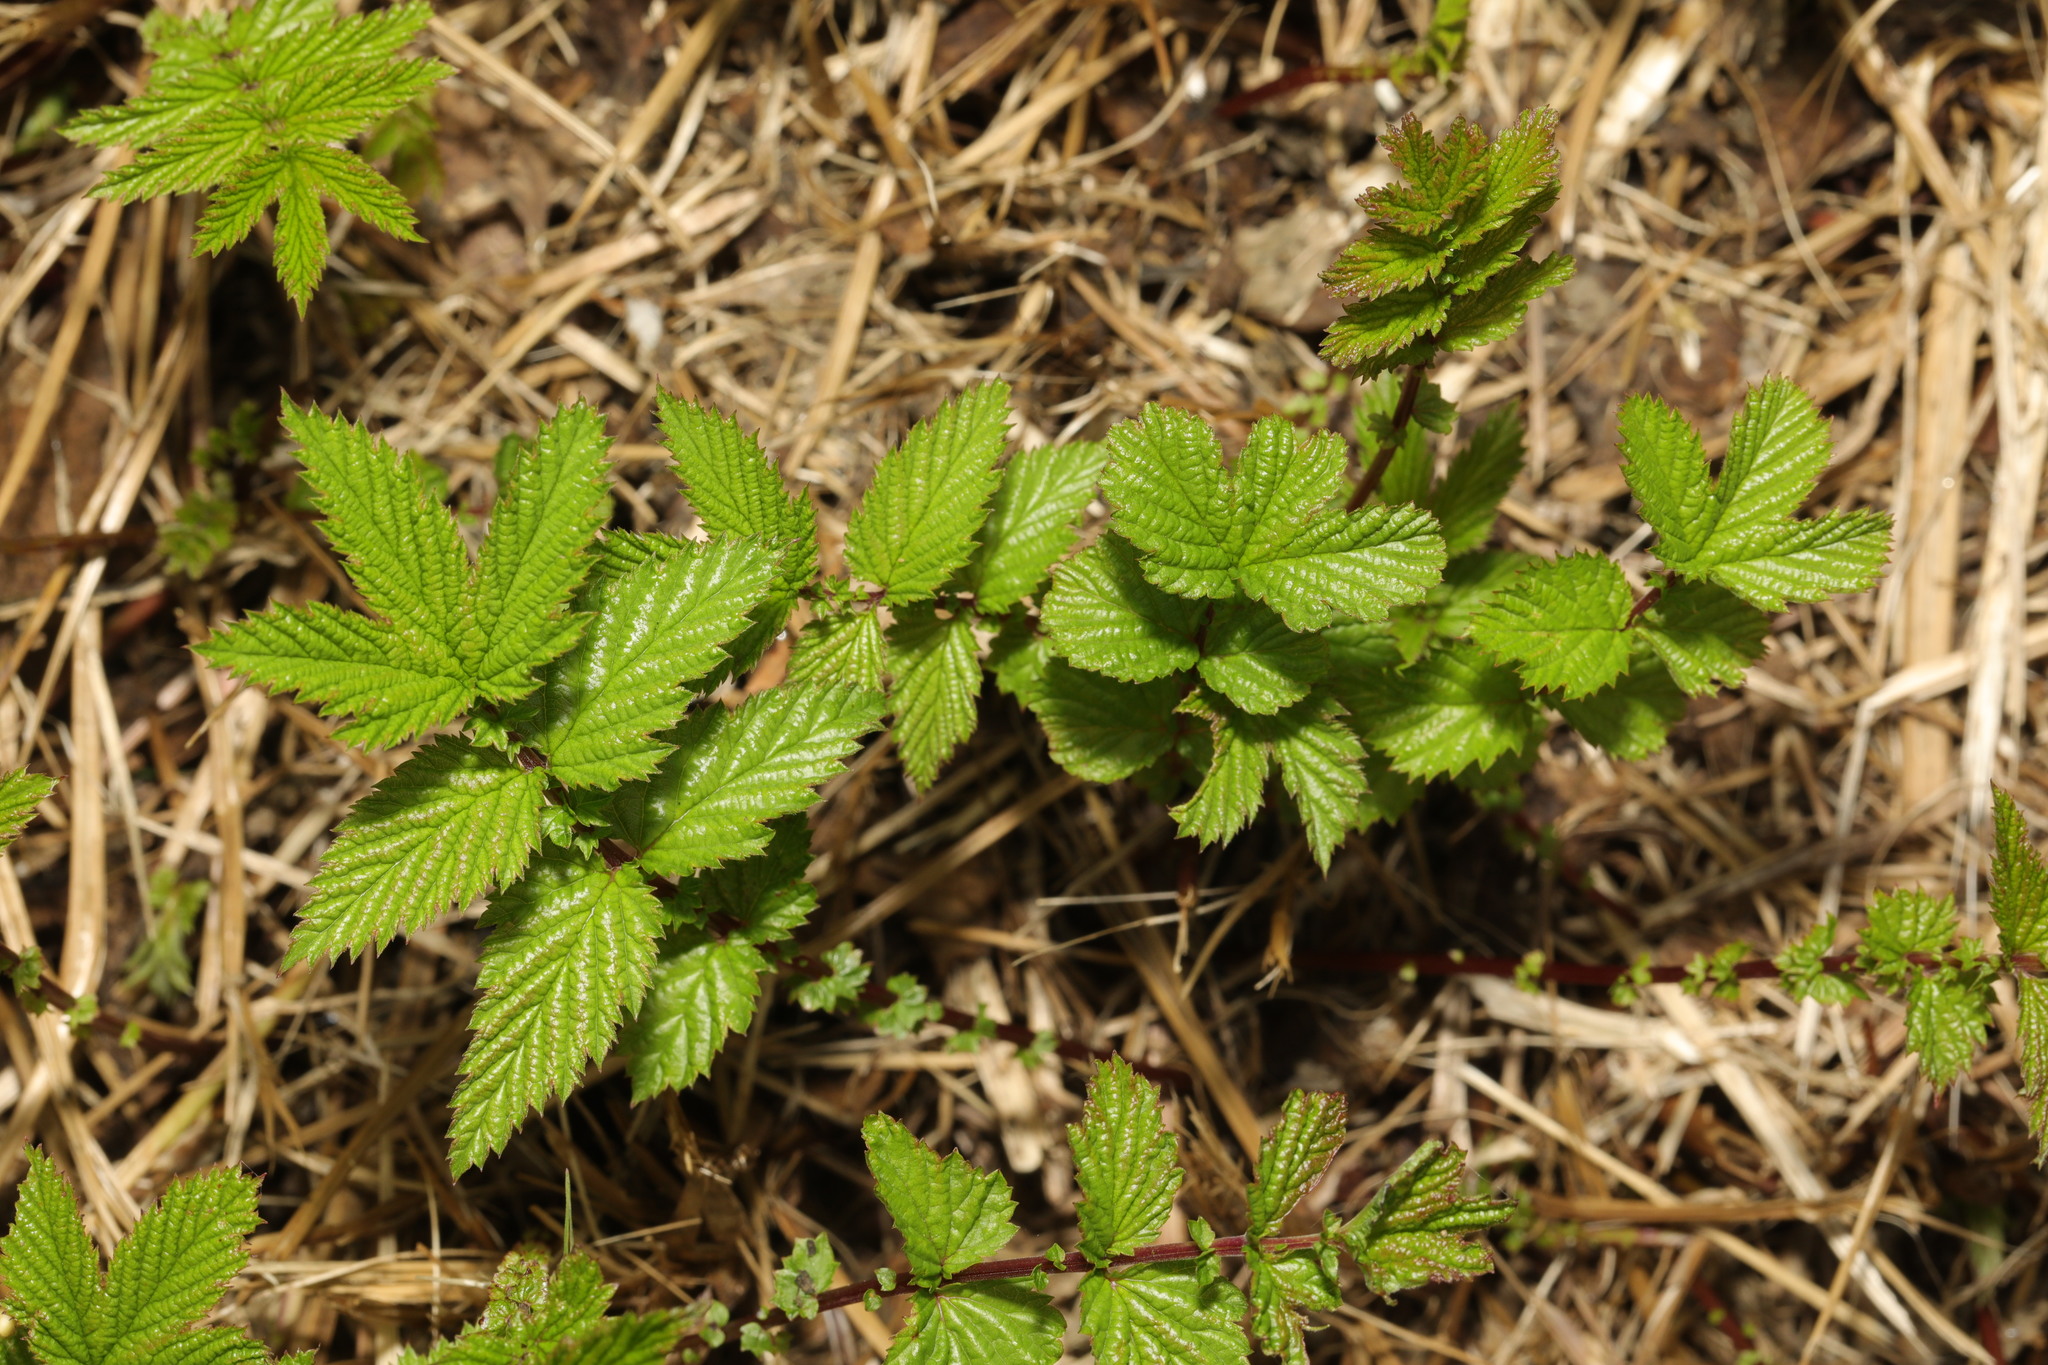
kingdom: Plantae
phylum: Tracheophyta
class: Magnoliopsida
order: Rosales
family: Rosaceae
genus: Filipendula
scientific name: Filipendula ulmaria
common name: Meadowsweet
